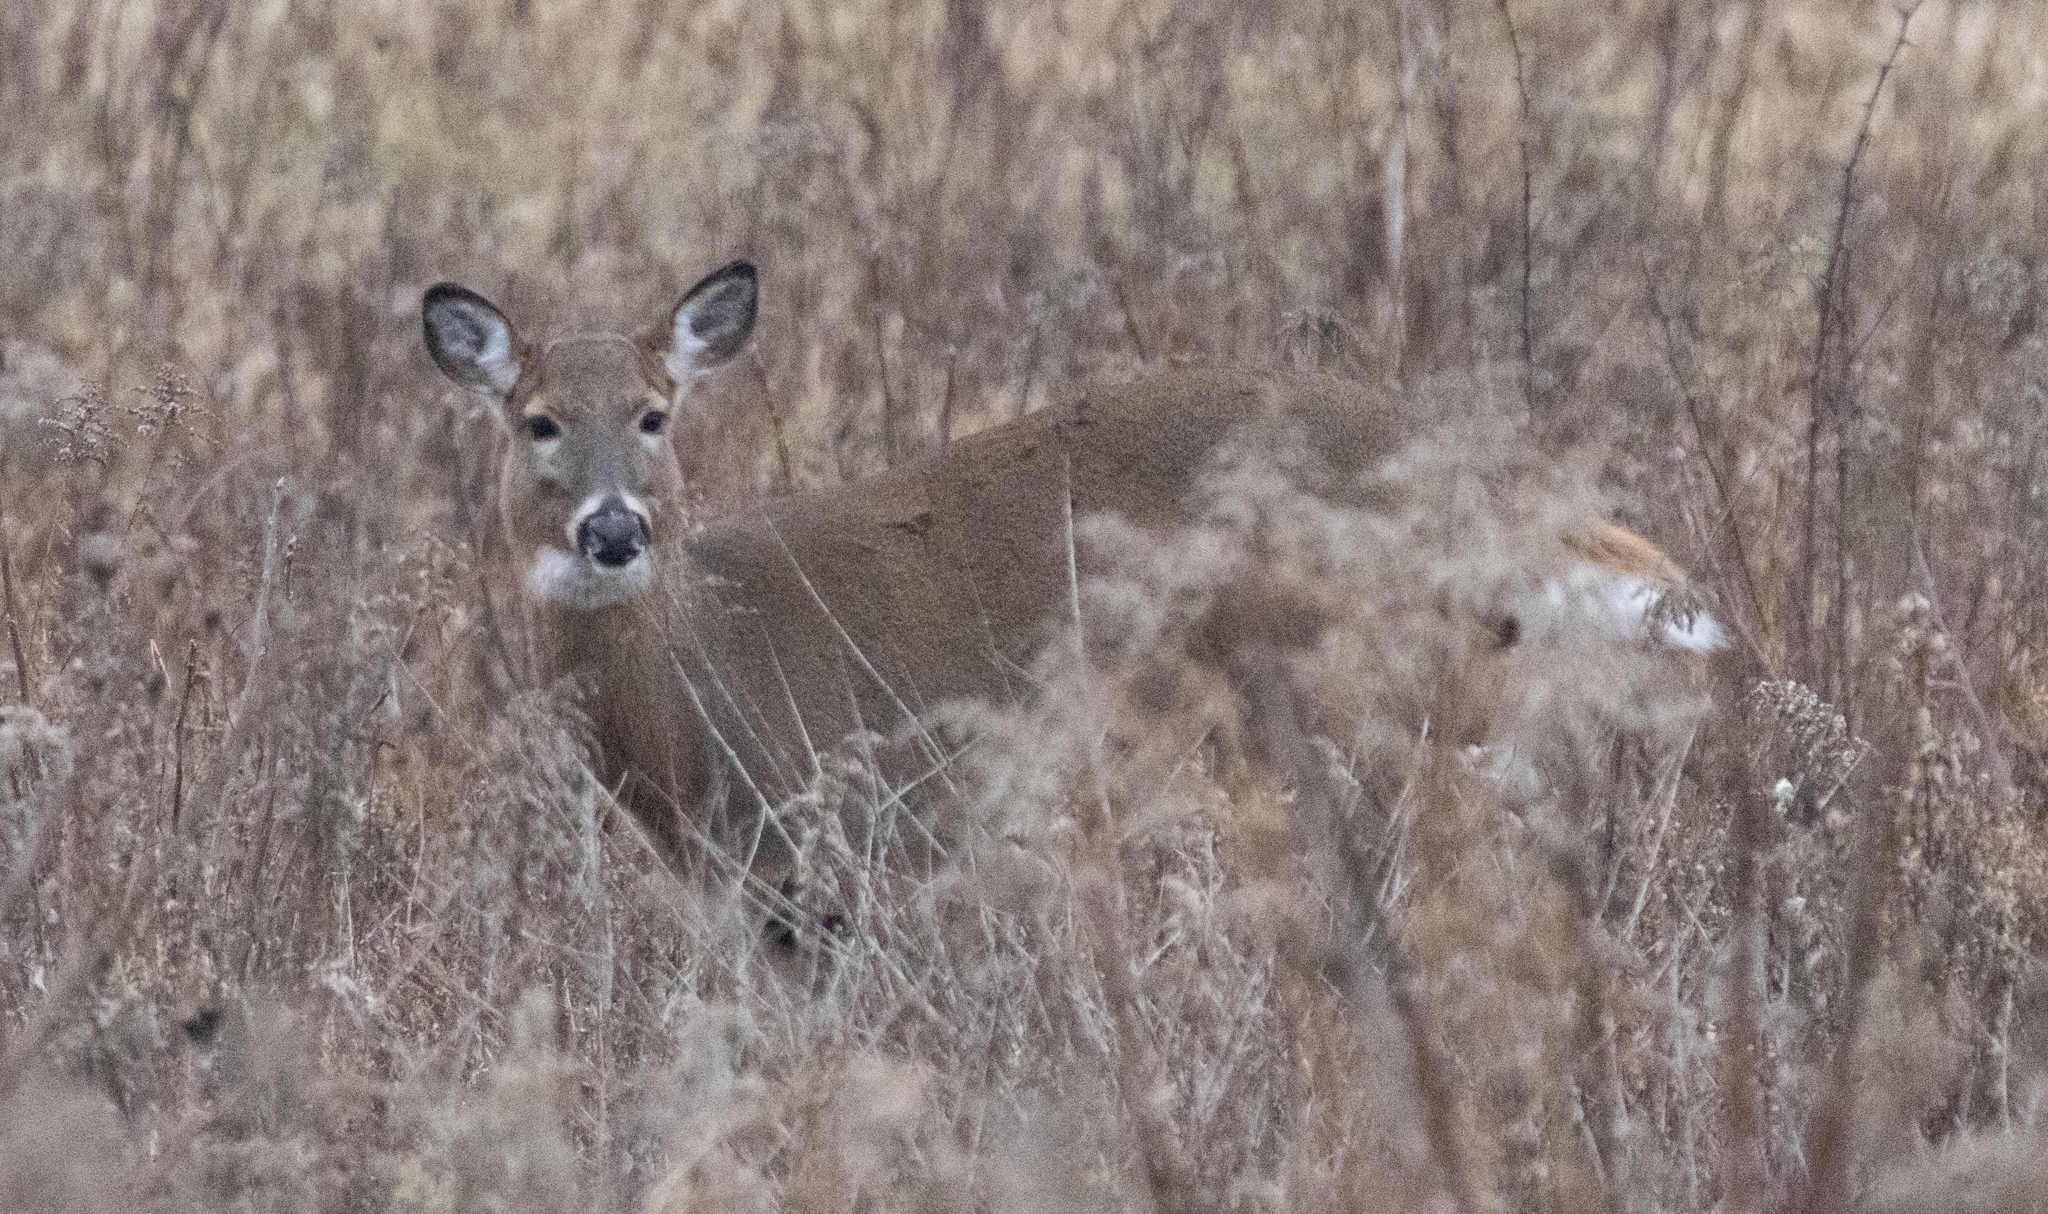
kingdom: Animalia
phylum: Chordata
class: Mammalia
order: Artiodactyla
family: Cervidae
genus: Odocoileus
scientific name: Odocoileus virginianus
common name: White-tailed deer
